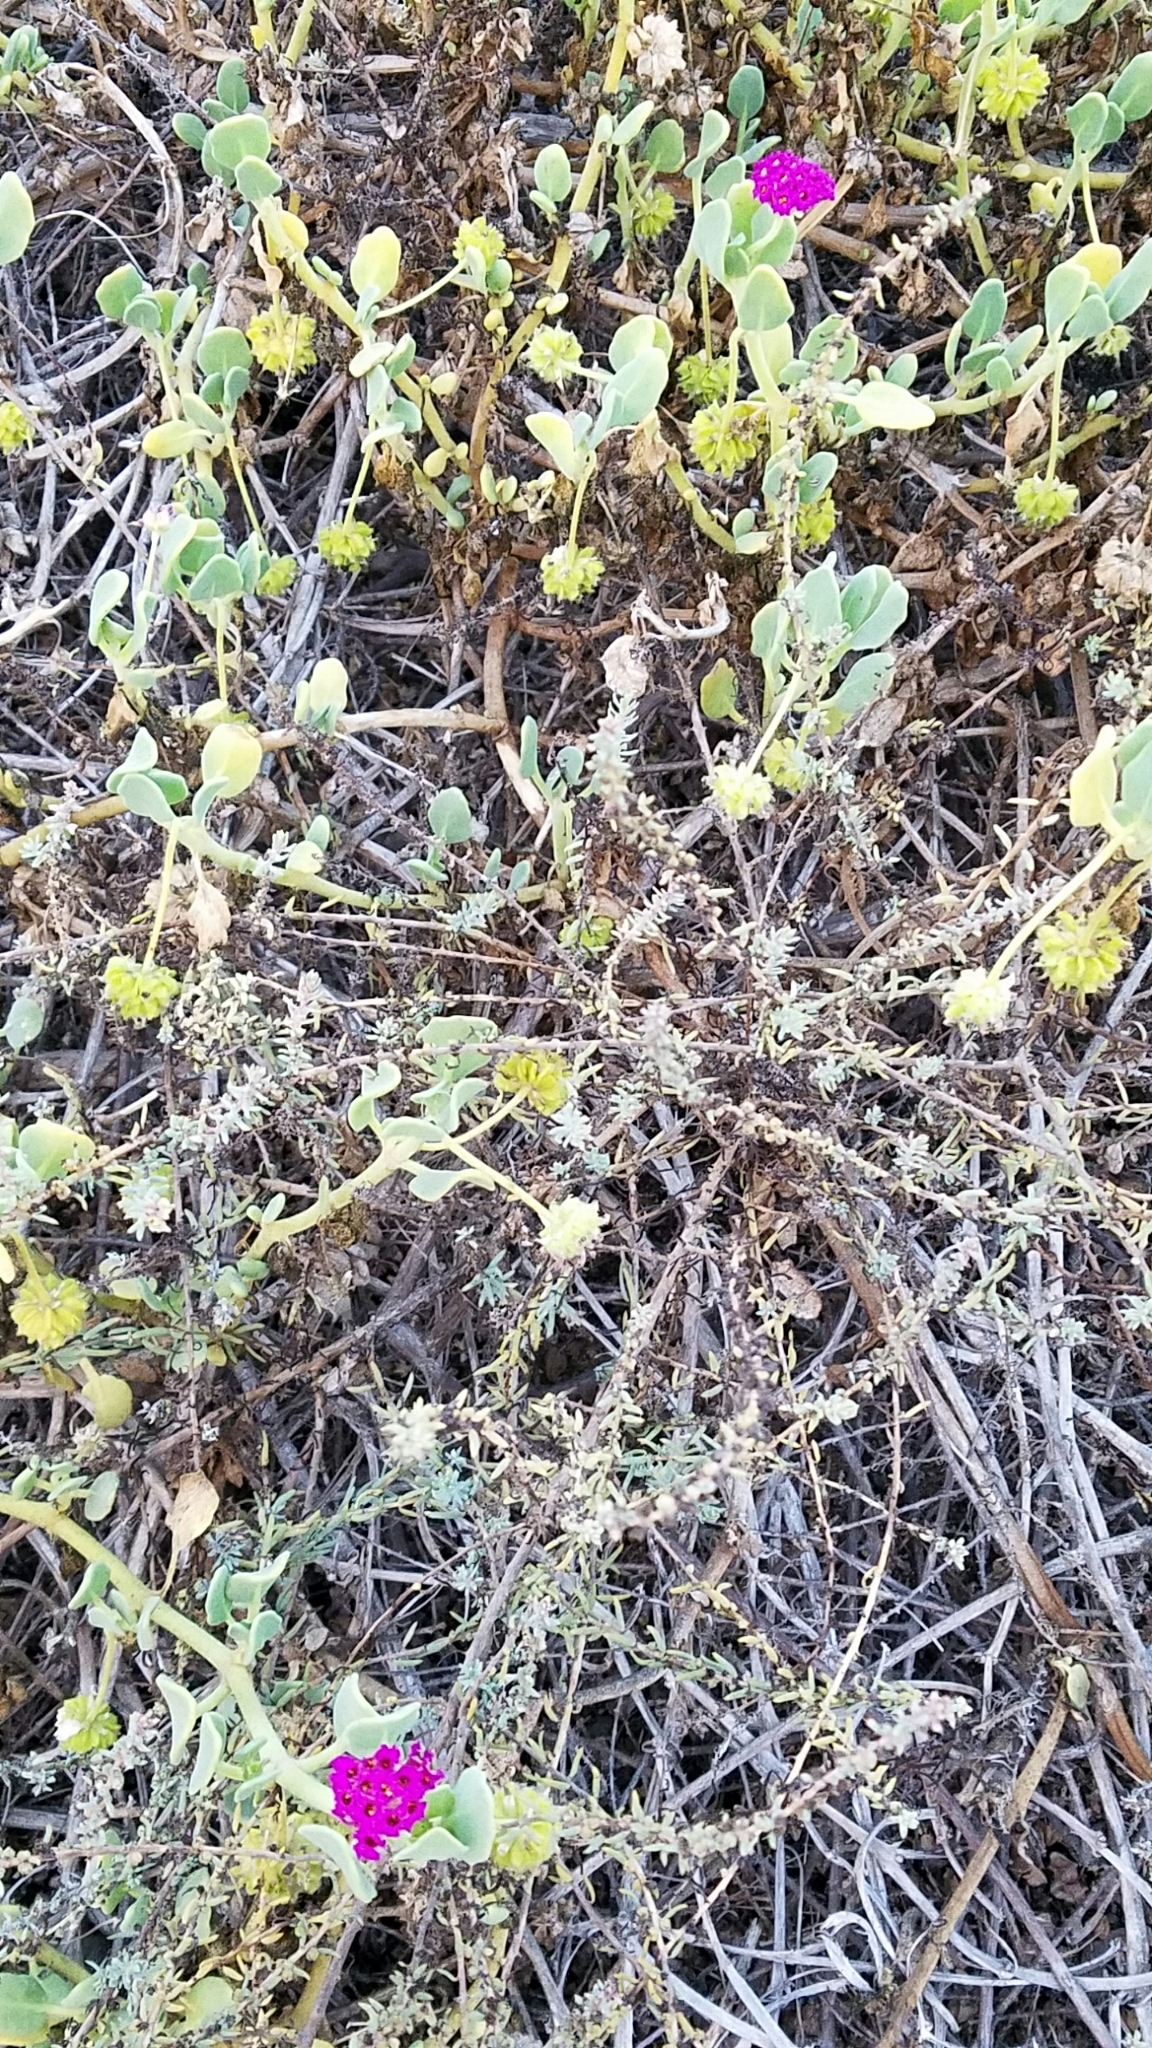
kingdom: Plantae
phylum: Tracheophyta
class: Magnoliopsida
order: Caryophyllales
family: Nyctaginaceae
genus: Abronia
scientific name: Abronia maritima
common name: Red sand-verbena
